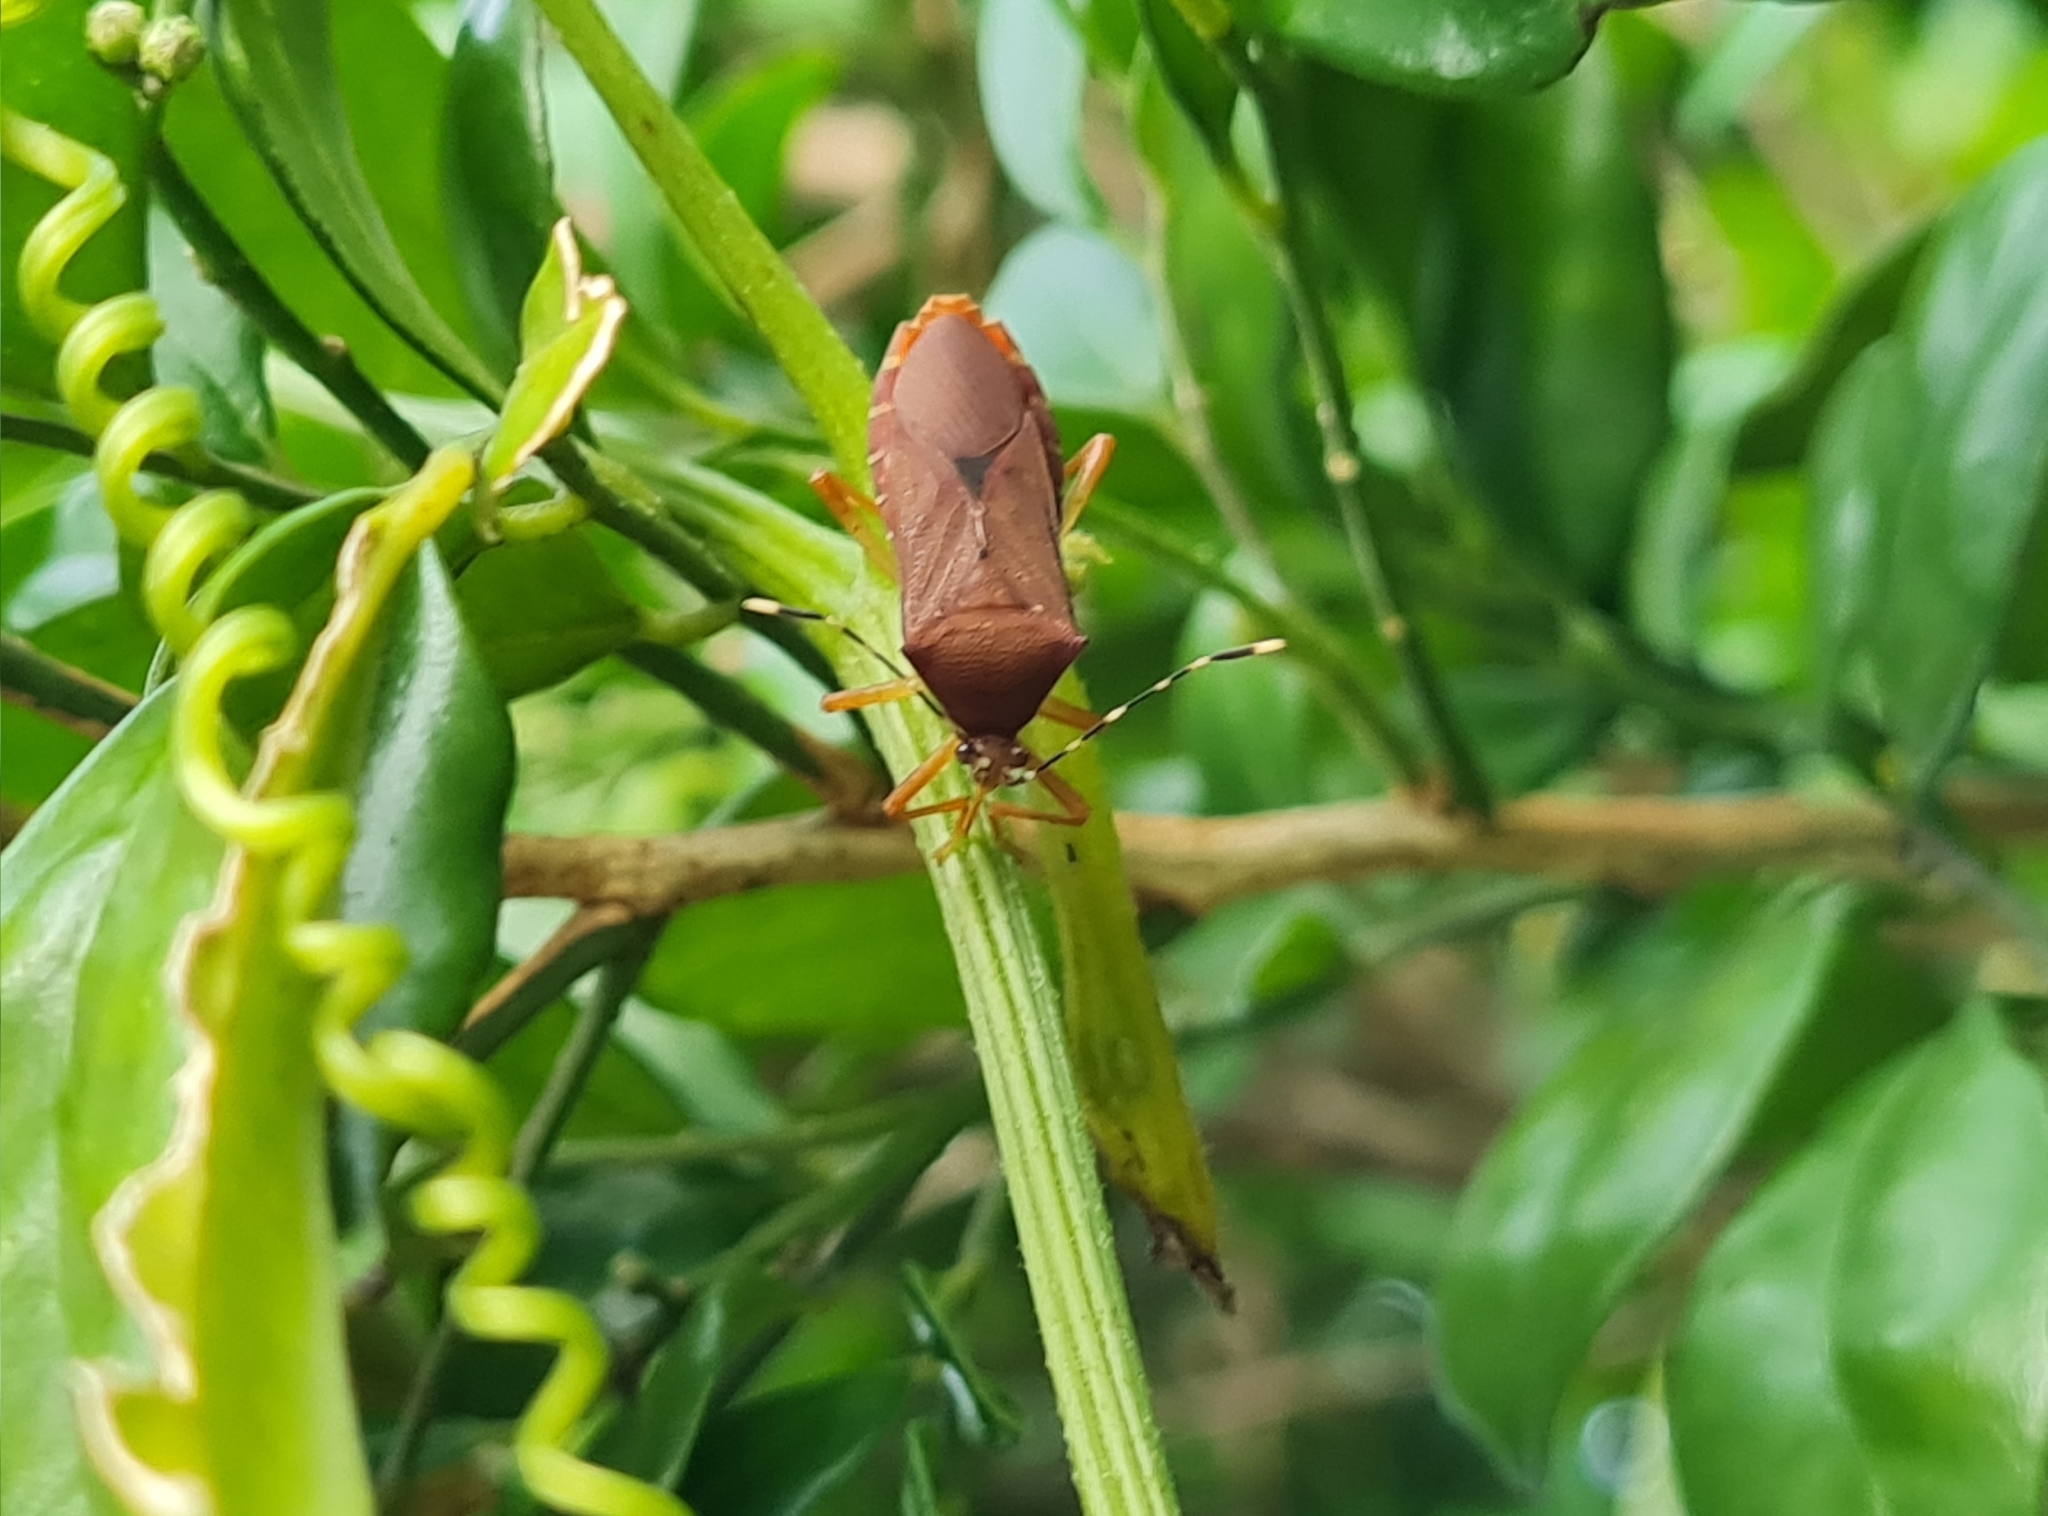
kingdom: Animalia
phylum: Arthropoda
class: Insecta
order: Hemiptera
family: Coreidae
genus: Anasa
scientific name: Anasa bellator
